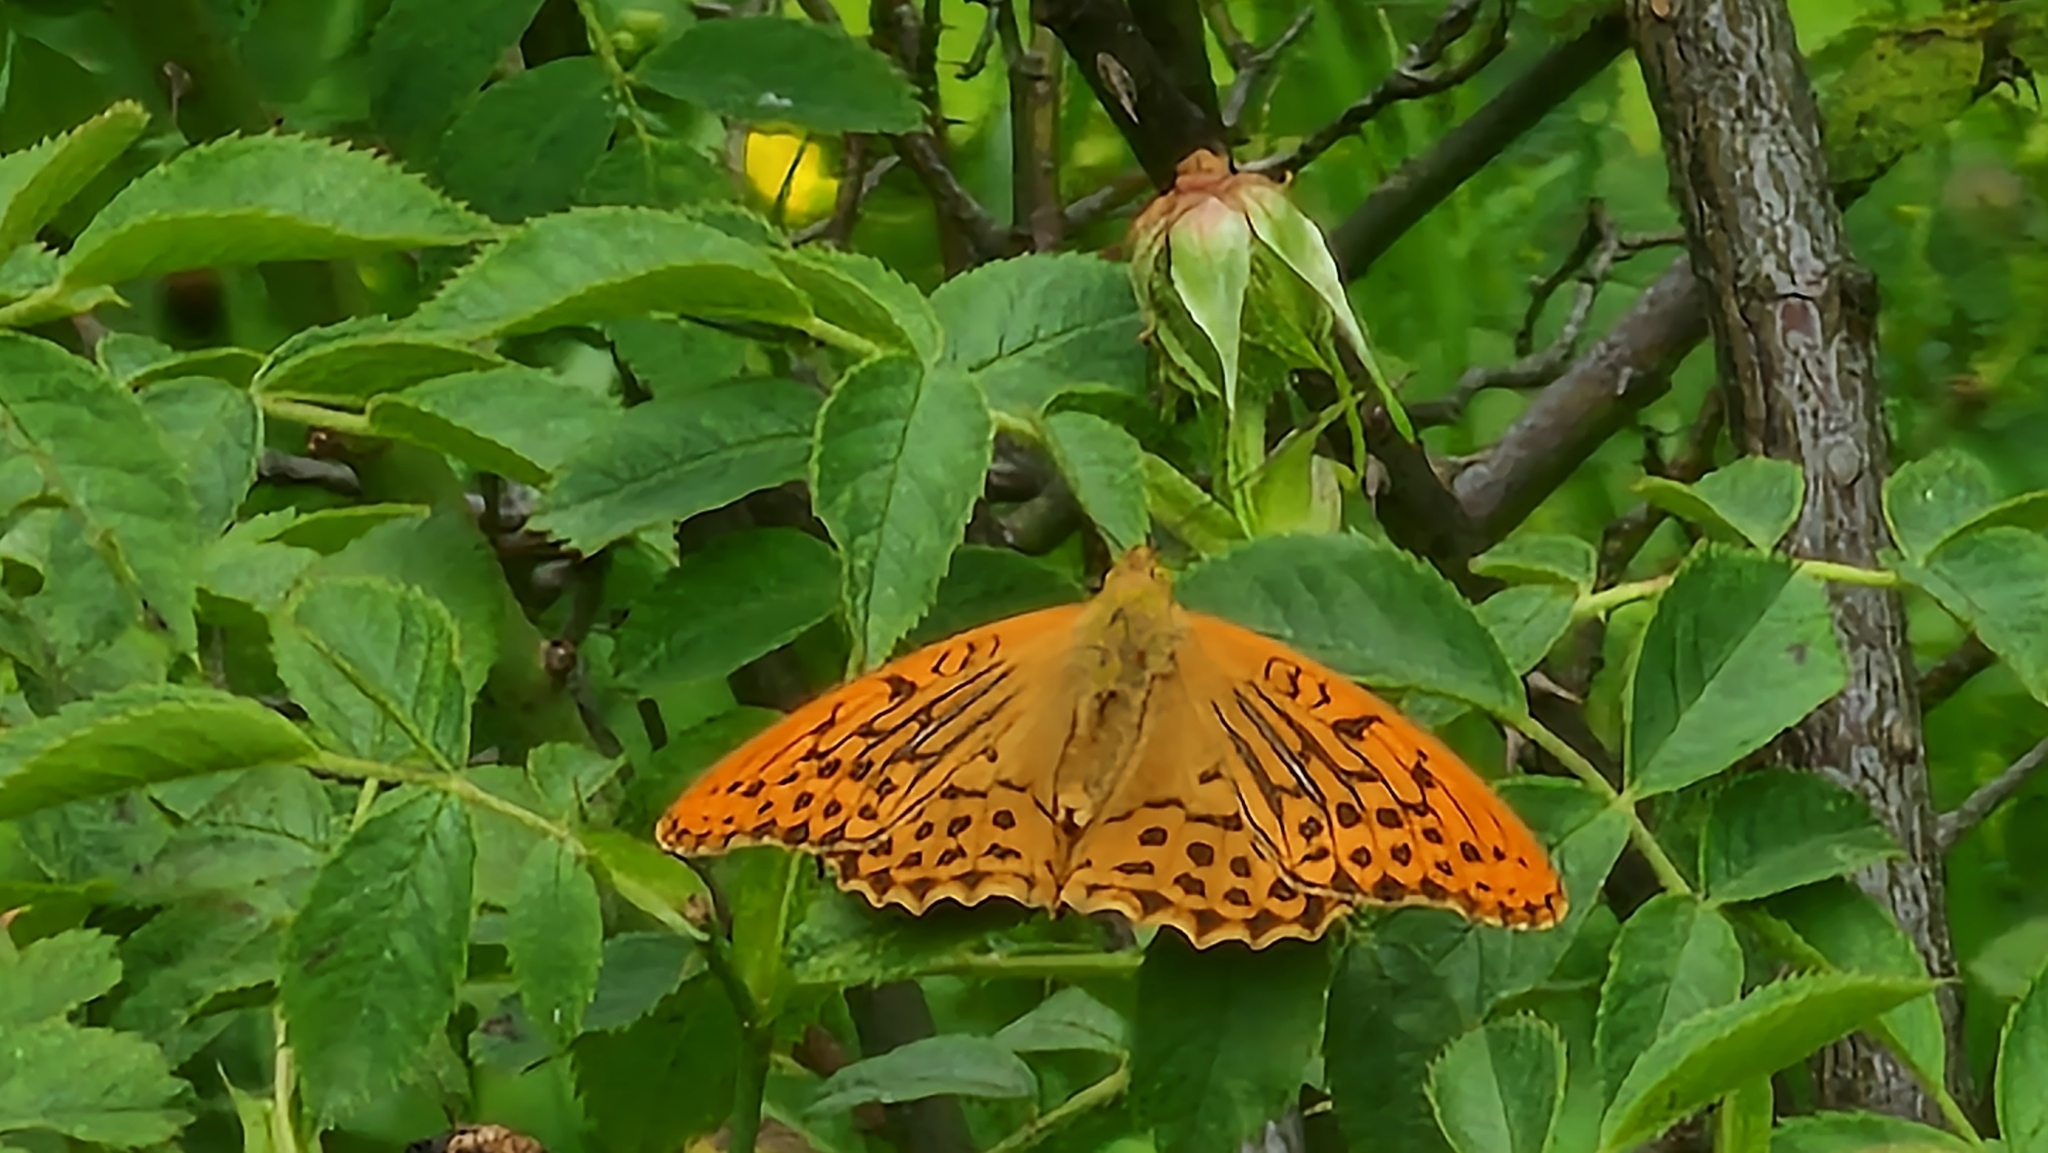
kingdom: Animalia
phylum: Arthropoda
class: Insecta
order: Lepidoptera
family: Nymphalidae
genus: Argynnis
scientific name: Argynnis paphia
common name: Silver-washed fritillary
